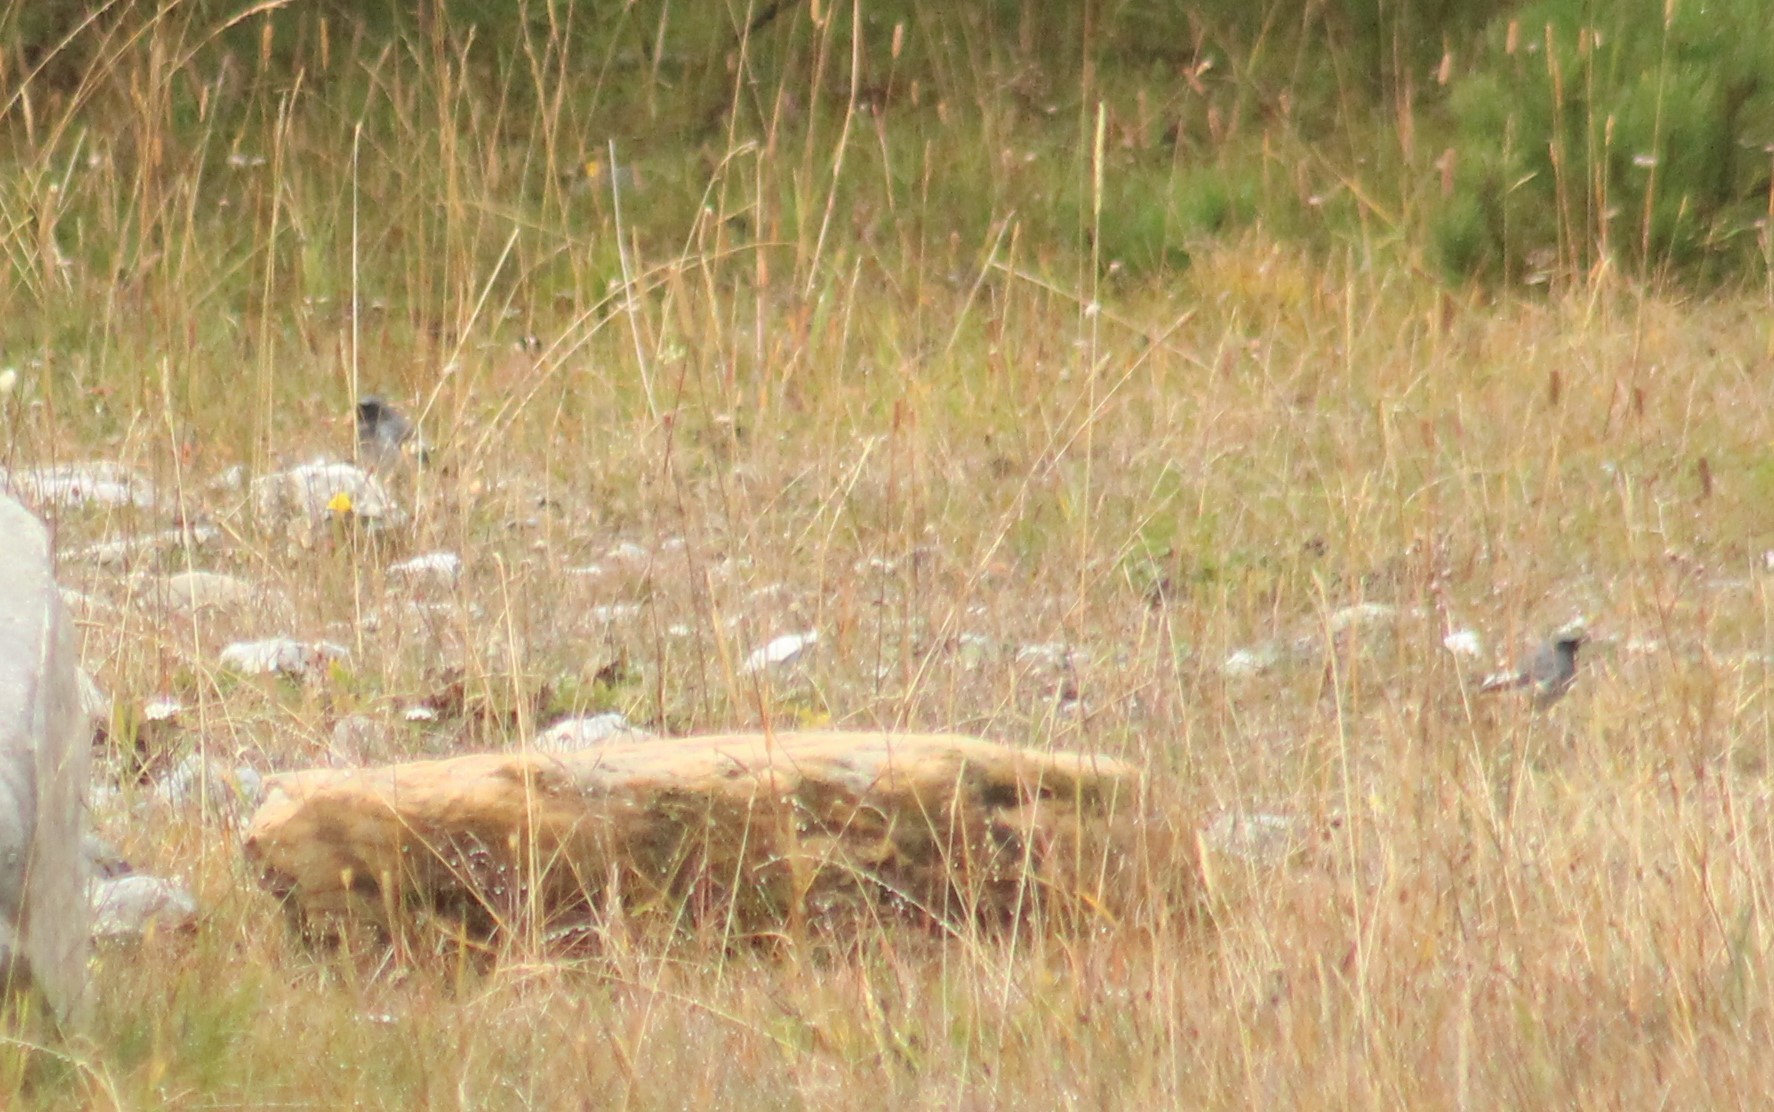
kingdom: Animalia
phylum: Chordata
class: Aves
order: Passeriformes
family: Muscicapidae
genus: Phoenicurus
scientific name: Phoenicurus ochruros
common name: Black redstart
